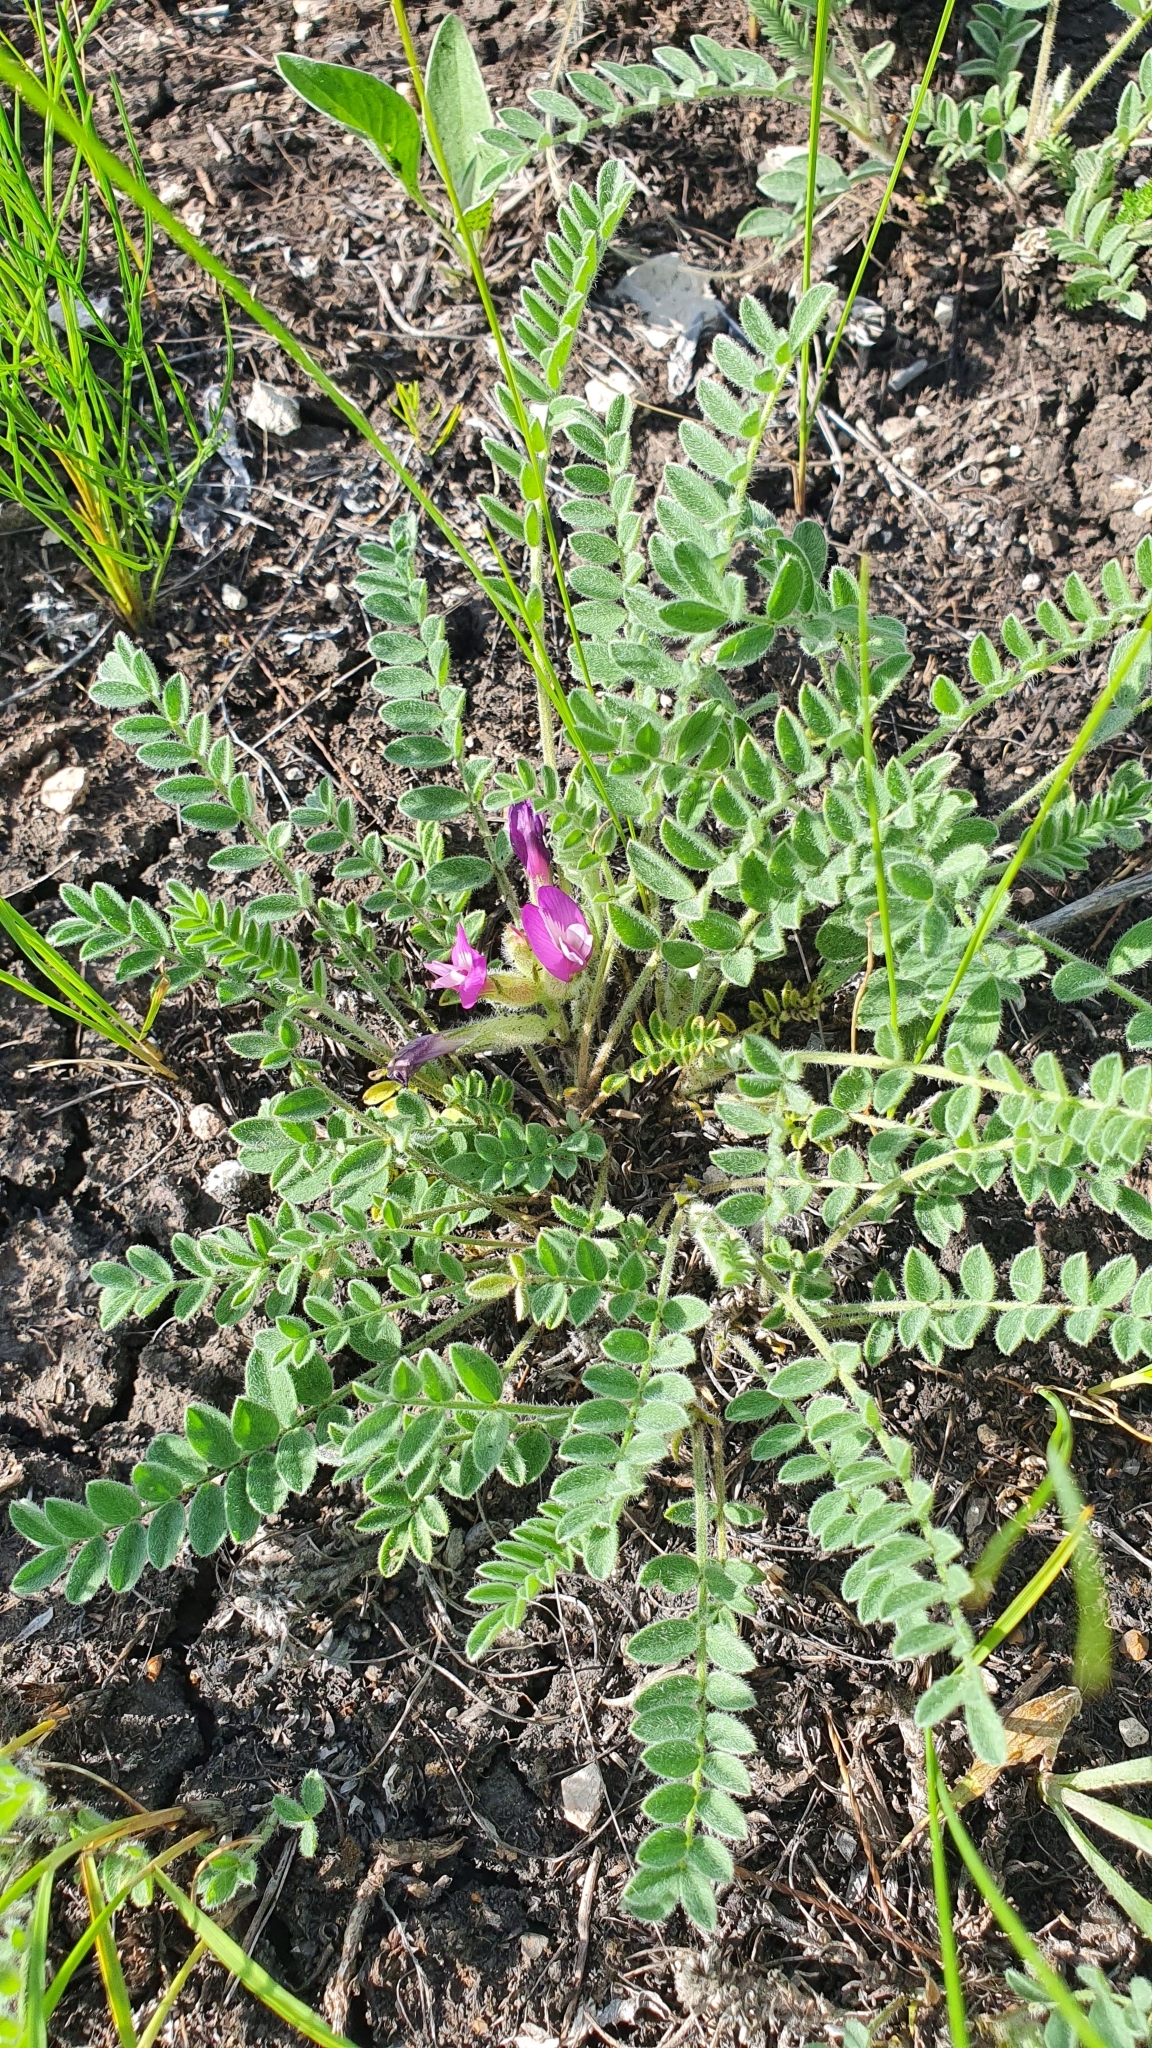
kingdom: Plantae
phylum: Tracheophyta
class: Magnoliopsida
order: Fabales
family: Fabaceae
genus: Astragalus
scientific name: Astragalus rupifragus
